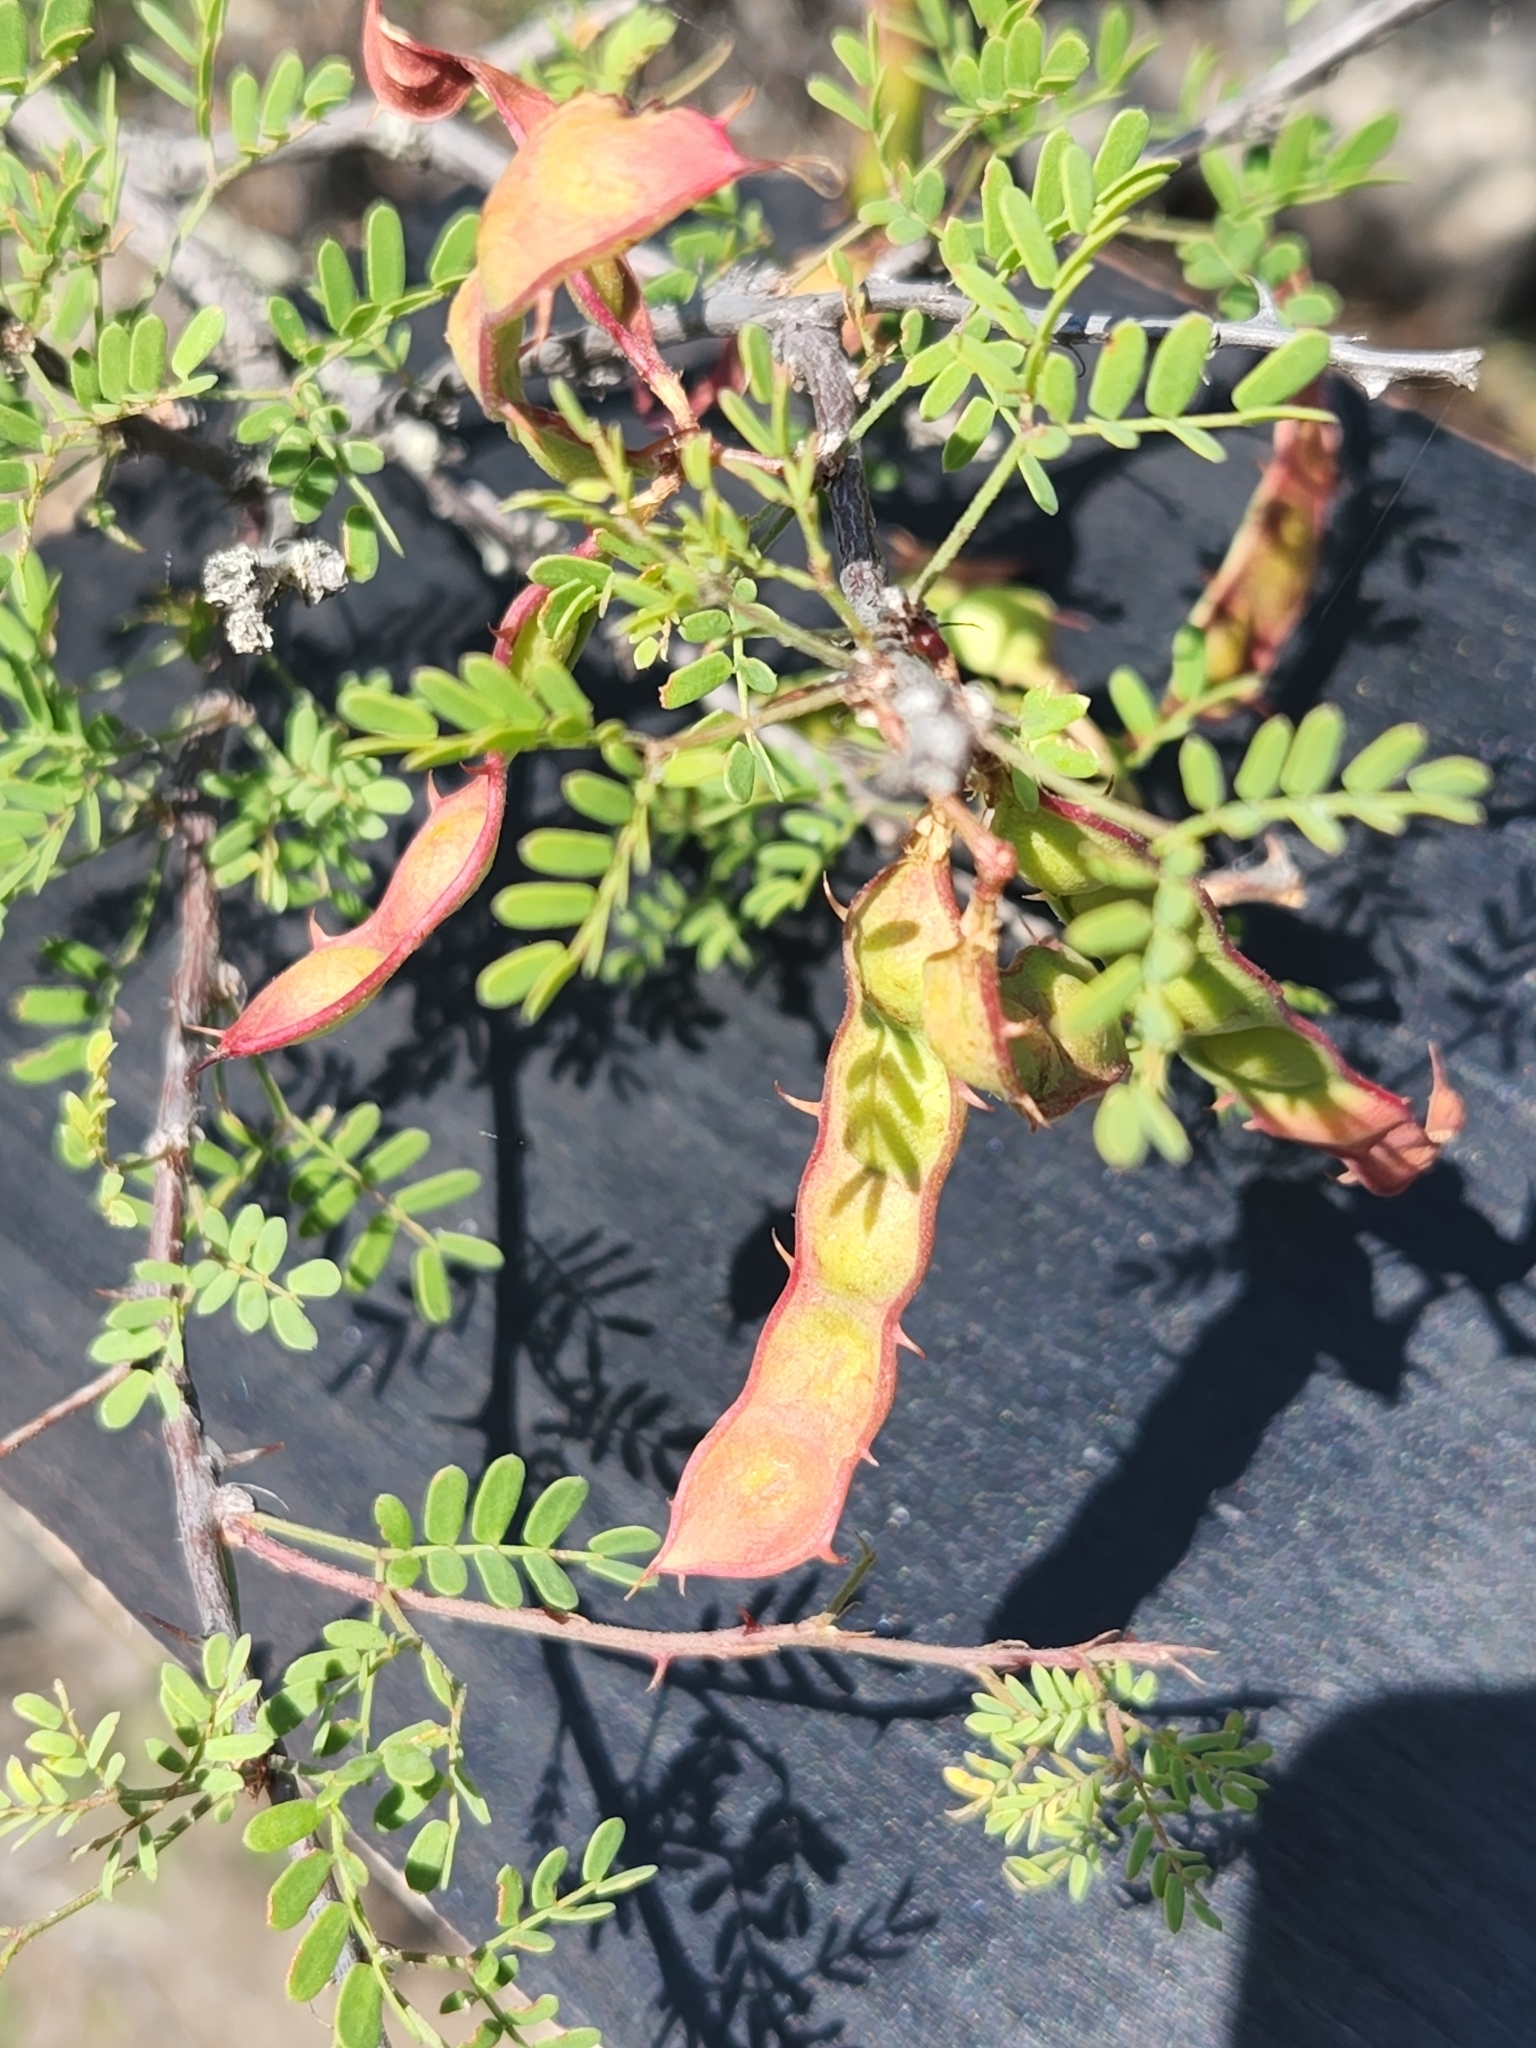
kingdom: Plantae
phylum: Tracheophyta
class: Magnoliopsida
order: Fabales
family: Fabaceae
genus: Mimosa
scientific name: Mimosa texana
